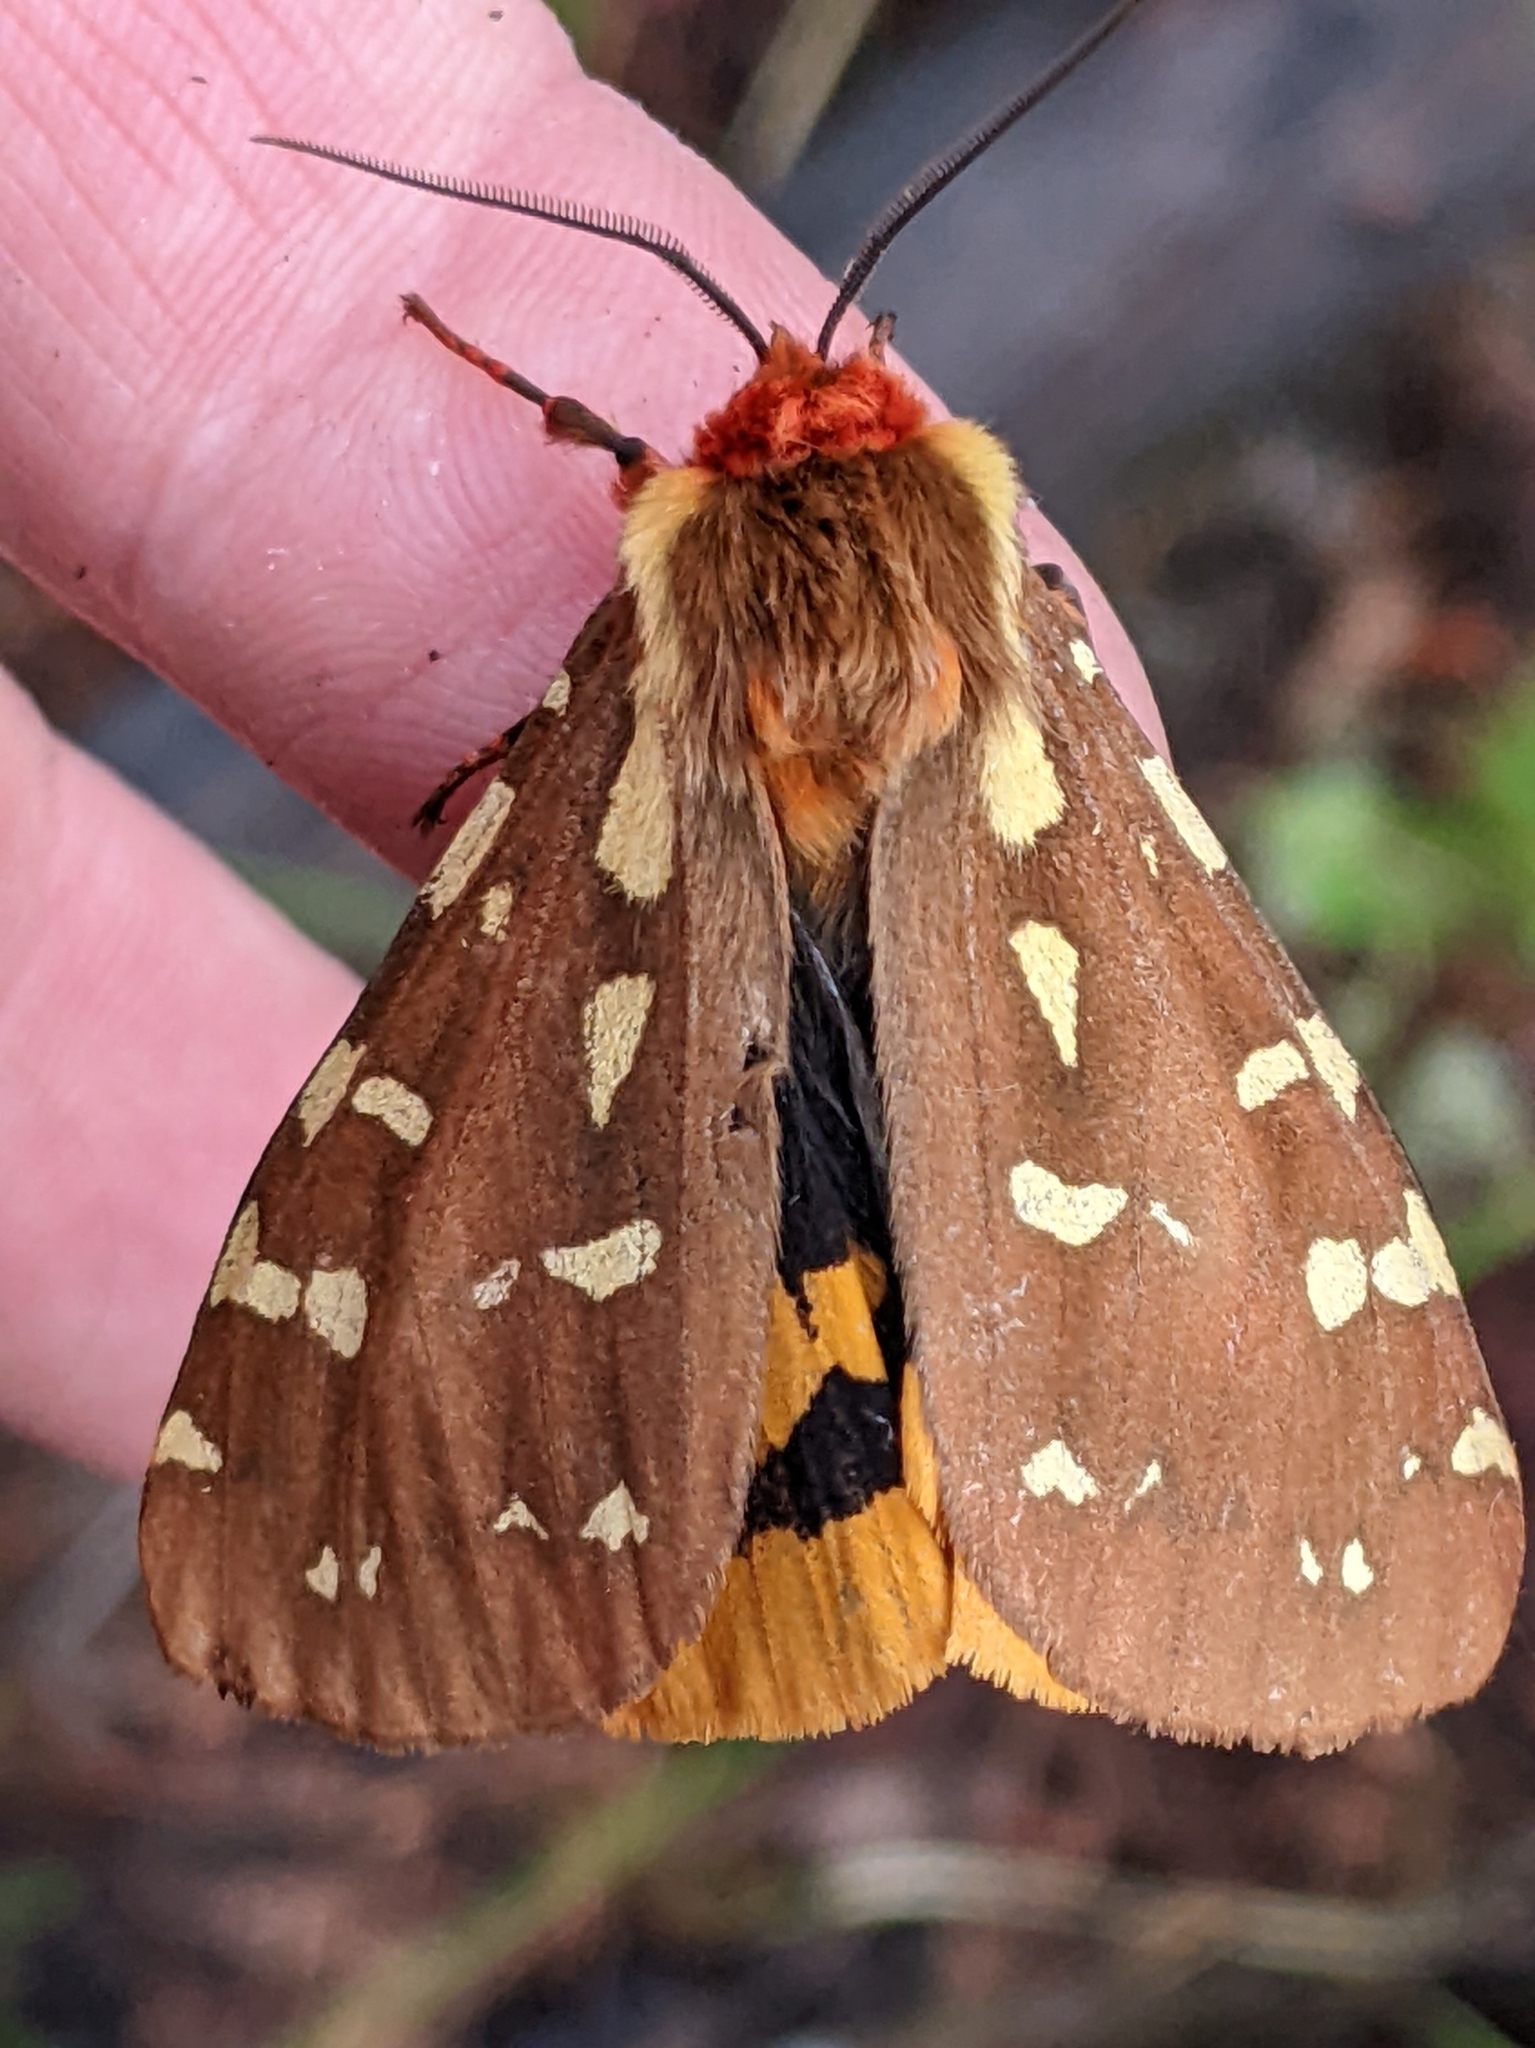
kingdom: Animalia
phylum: Arthropoda
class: Insecta
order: Lepidoptera
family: Erebidae
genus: Arctia
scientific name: Arctia parthenos
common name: St. lawrence tiger moth
